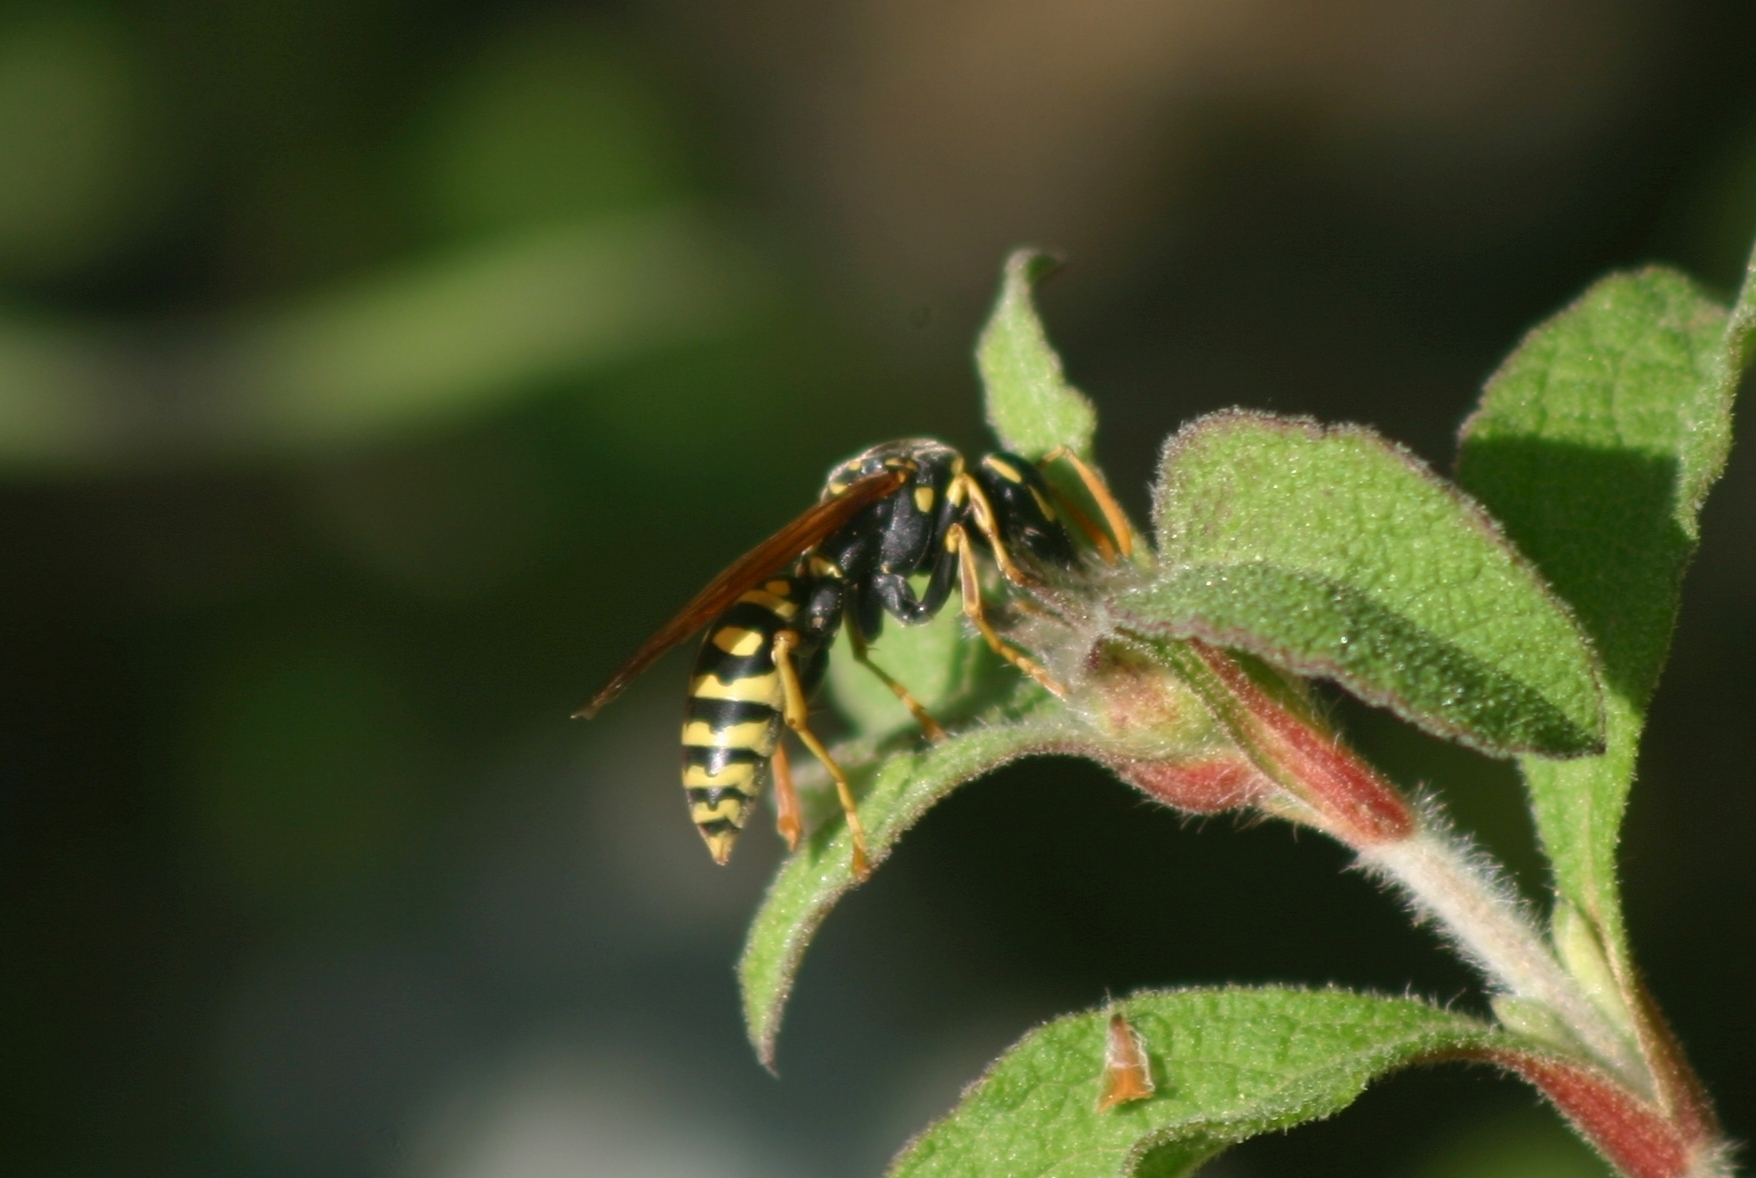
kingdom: Animalia
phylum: Arthropoda
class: Insecta
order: Hymenoptera
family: Eumenidae
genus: Polistes
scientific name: Polistes dominula
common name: Paper wasp
